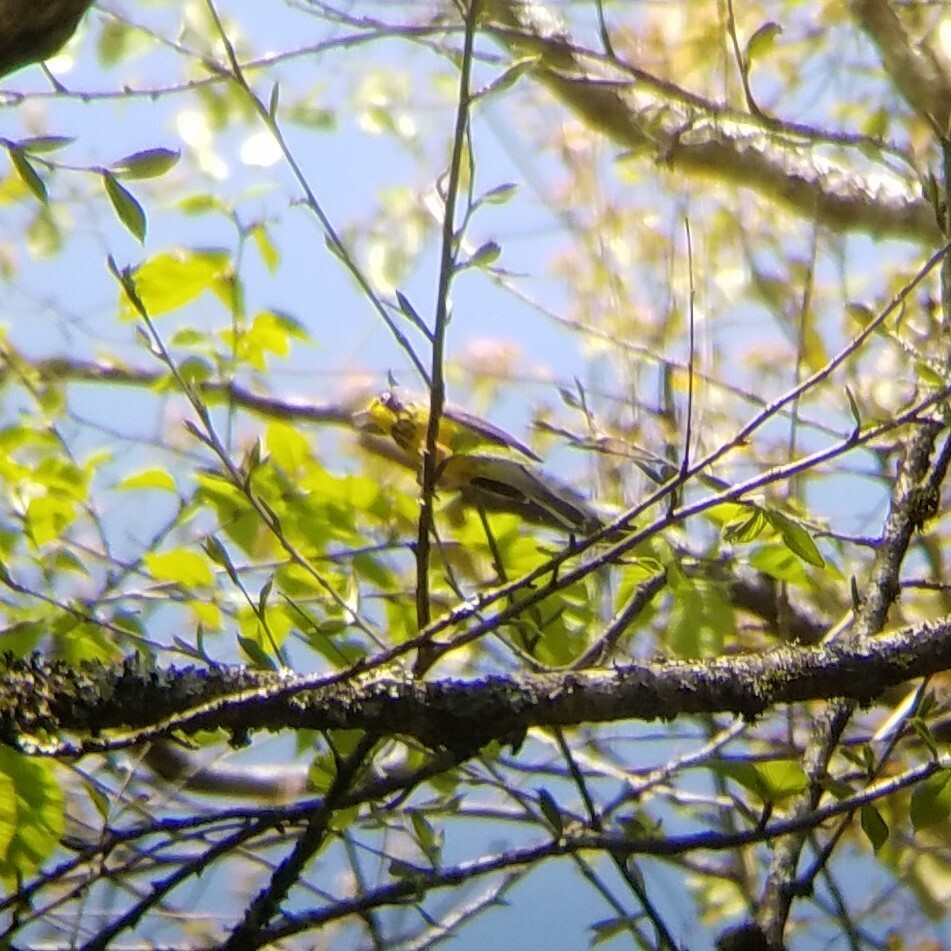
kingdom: Animalia
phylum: Chordata
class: Aves
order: Passeriformes
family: Parulidae
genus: Cardellina
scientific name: Cardellina canadensis
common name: Canada warbler
